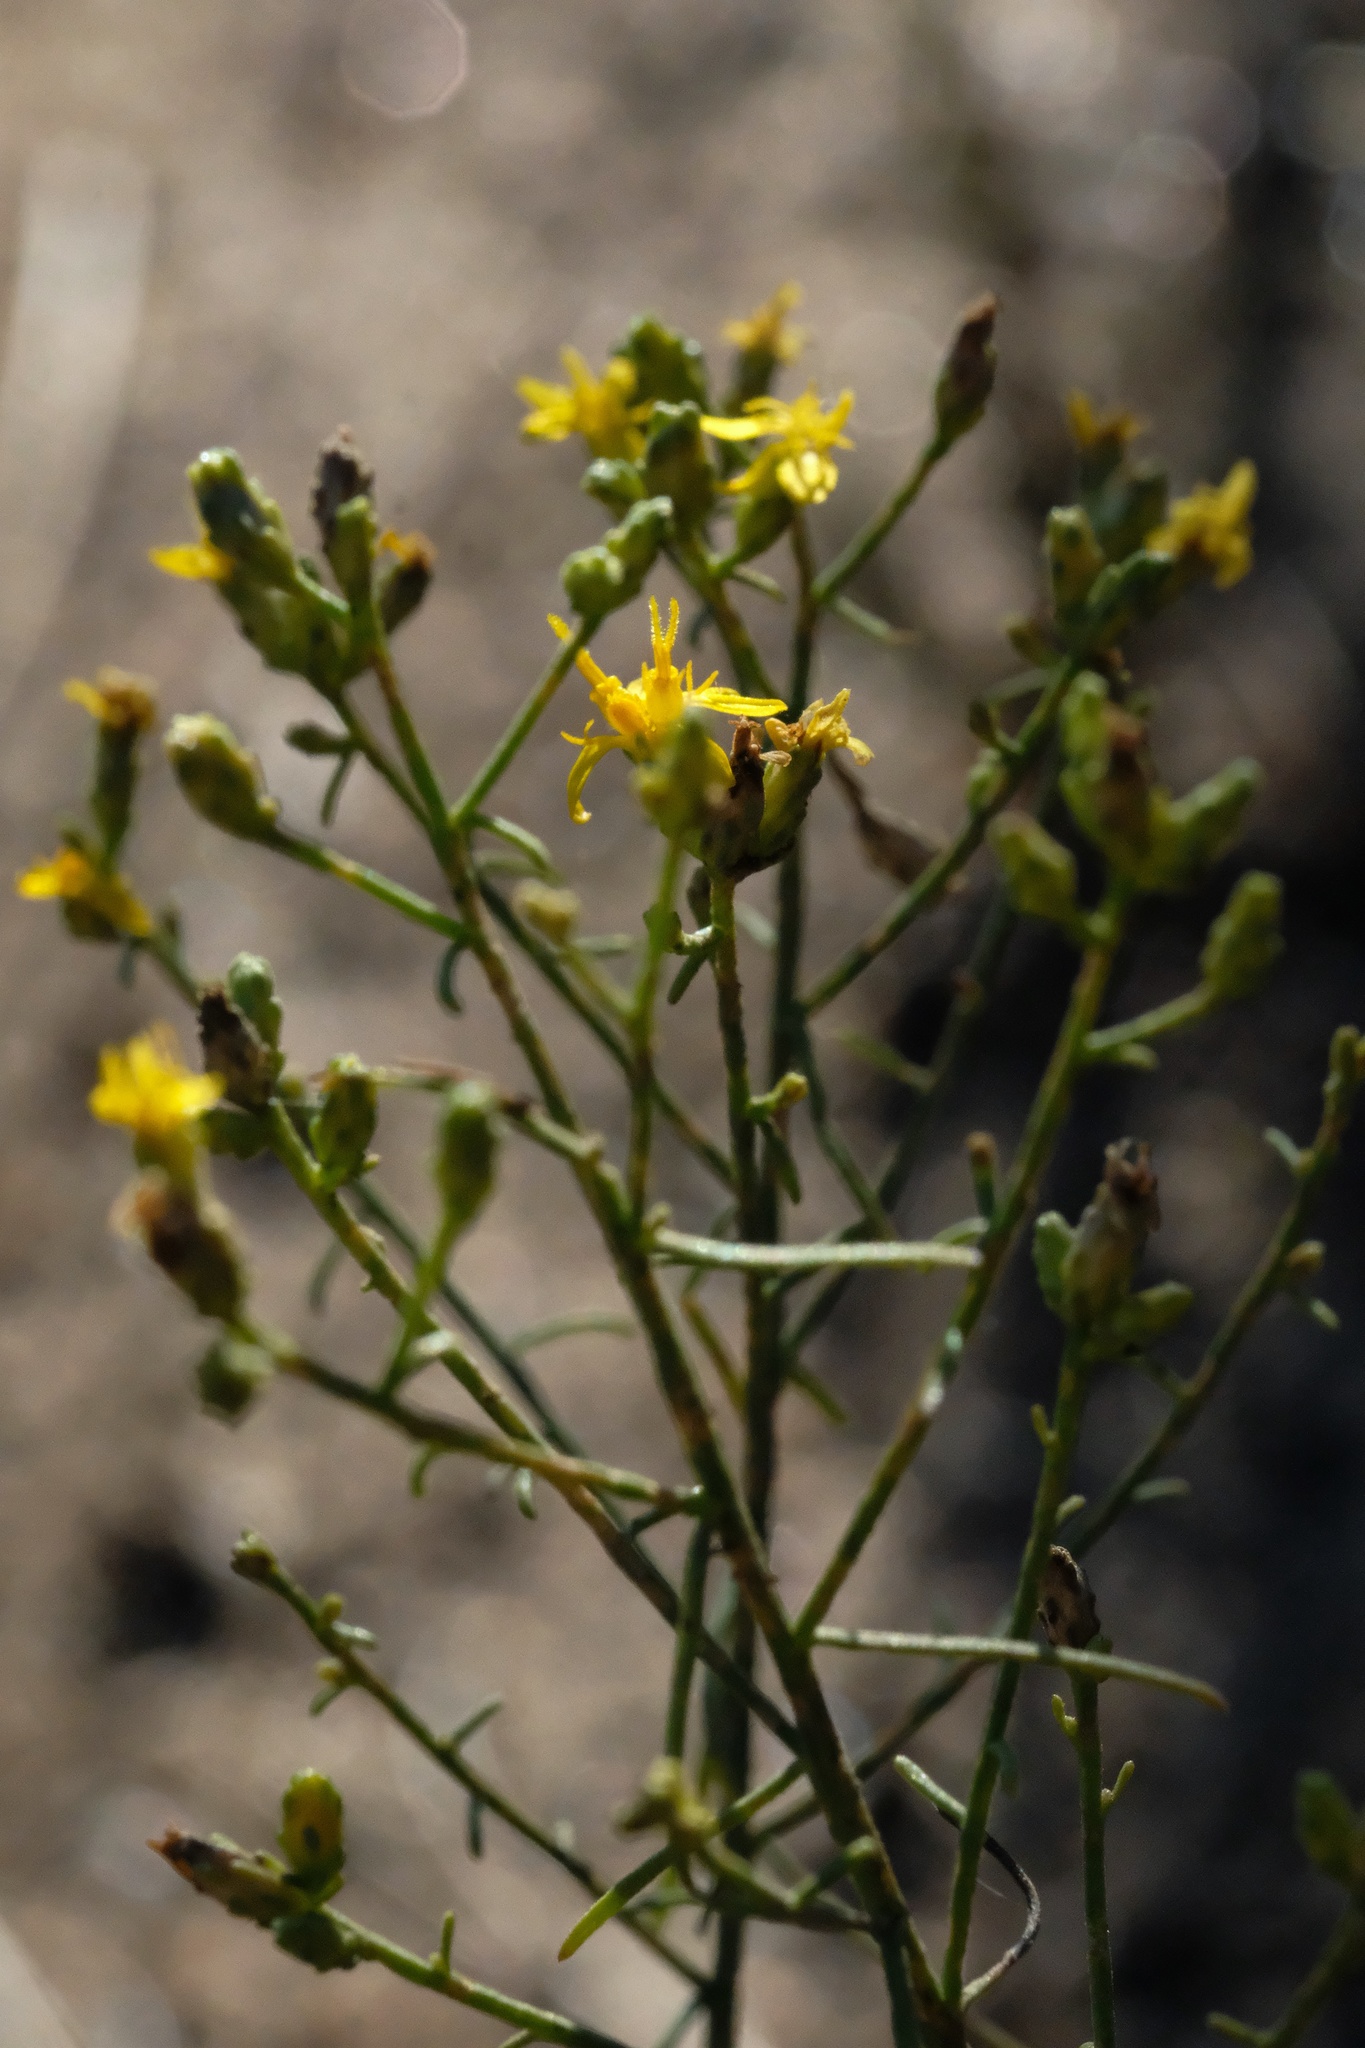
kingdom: Plantae
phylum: Tracheophyta
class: Magnoliopsida
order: Asterales
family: Asteraceae
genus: Gutierrezia
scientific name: Gutierrezia sarothrae
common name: Broom snakeweed
